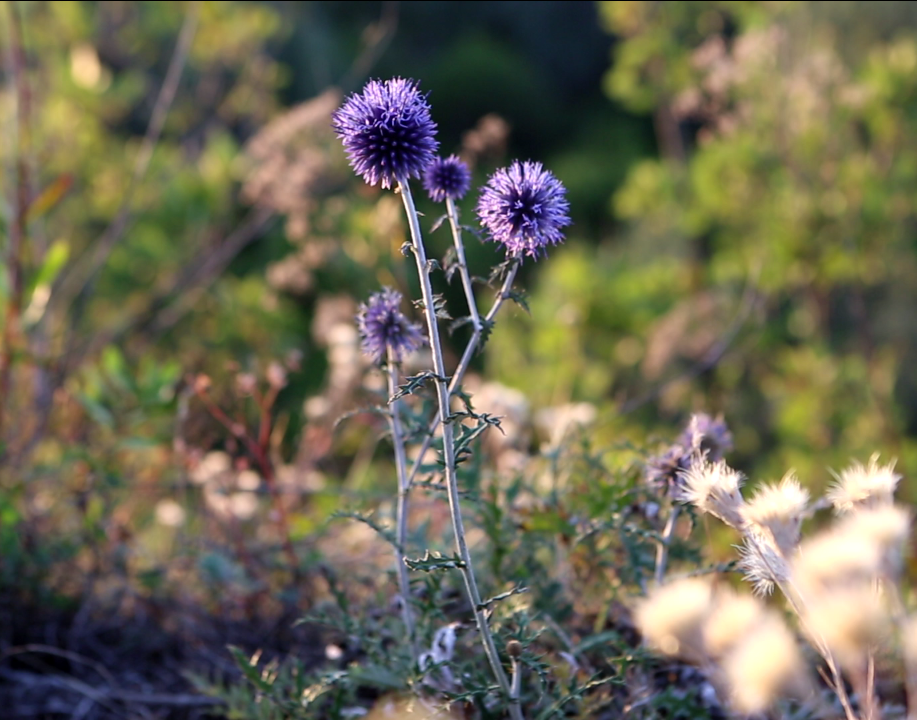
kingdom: Plantae
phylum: Tracheophyta
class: Magnoliopsida
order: Asterales
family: Asteraceae
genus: Echinops
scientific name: Echinops ritro
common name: Globe thistle
